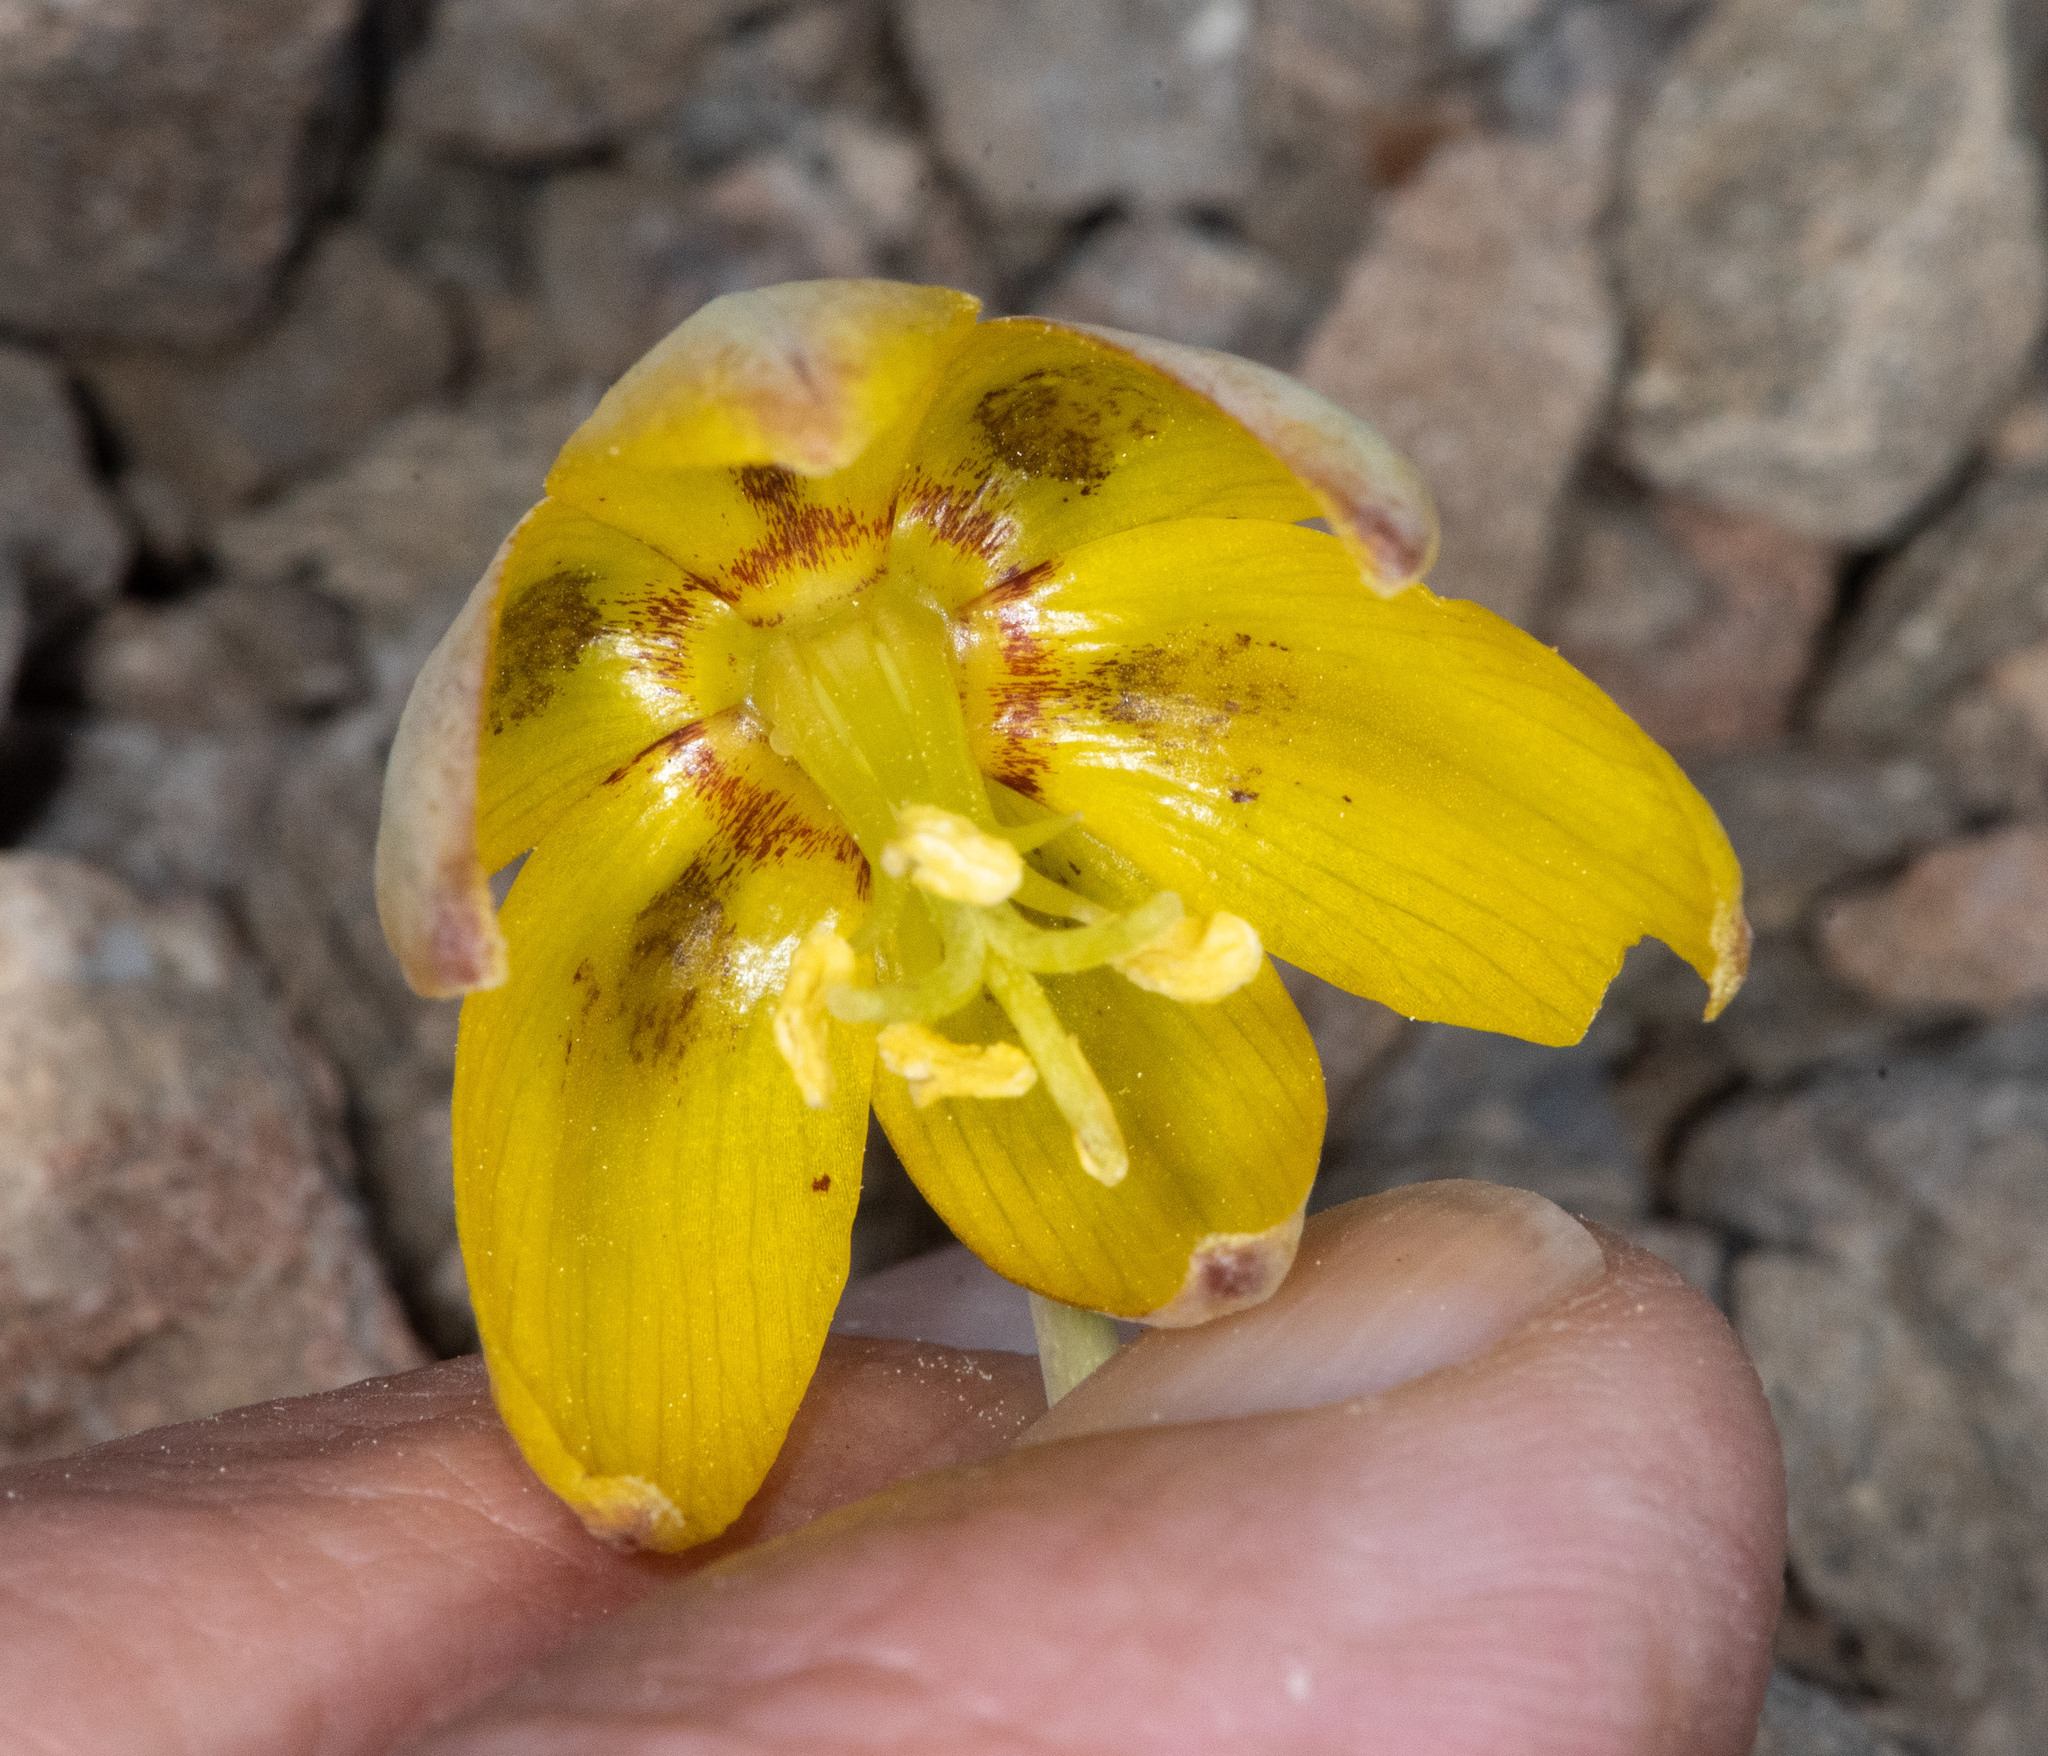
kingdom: Plantae
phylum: Tracheophyta
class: Liliopsida
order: Liliales
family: Liliaceae
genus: Fritillaria
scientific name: Fritillaria glauca
